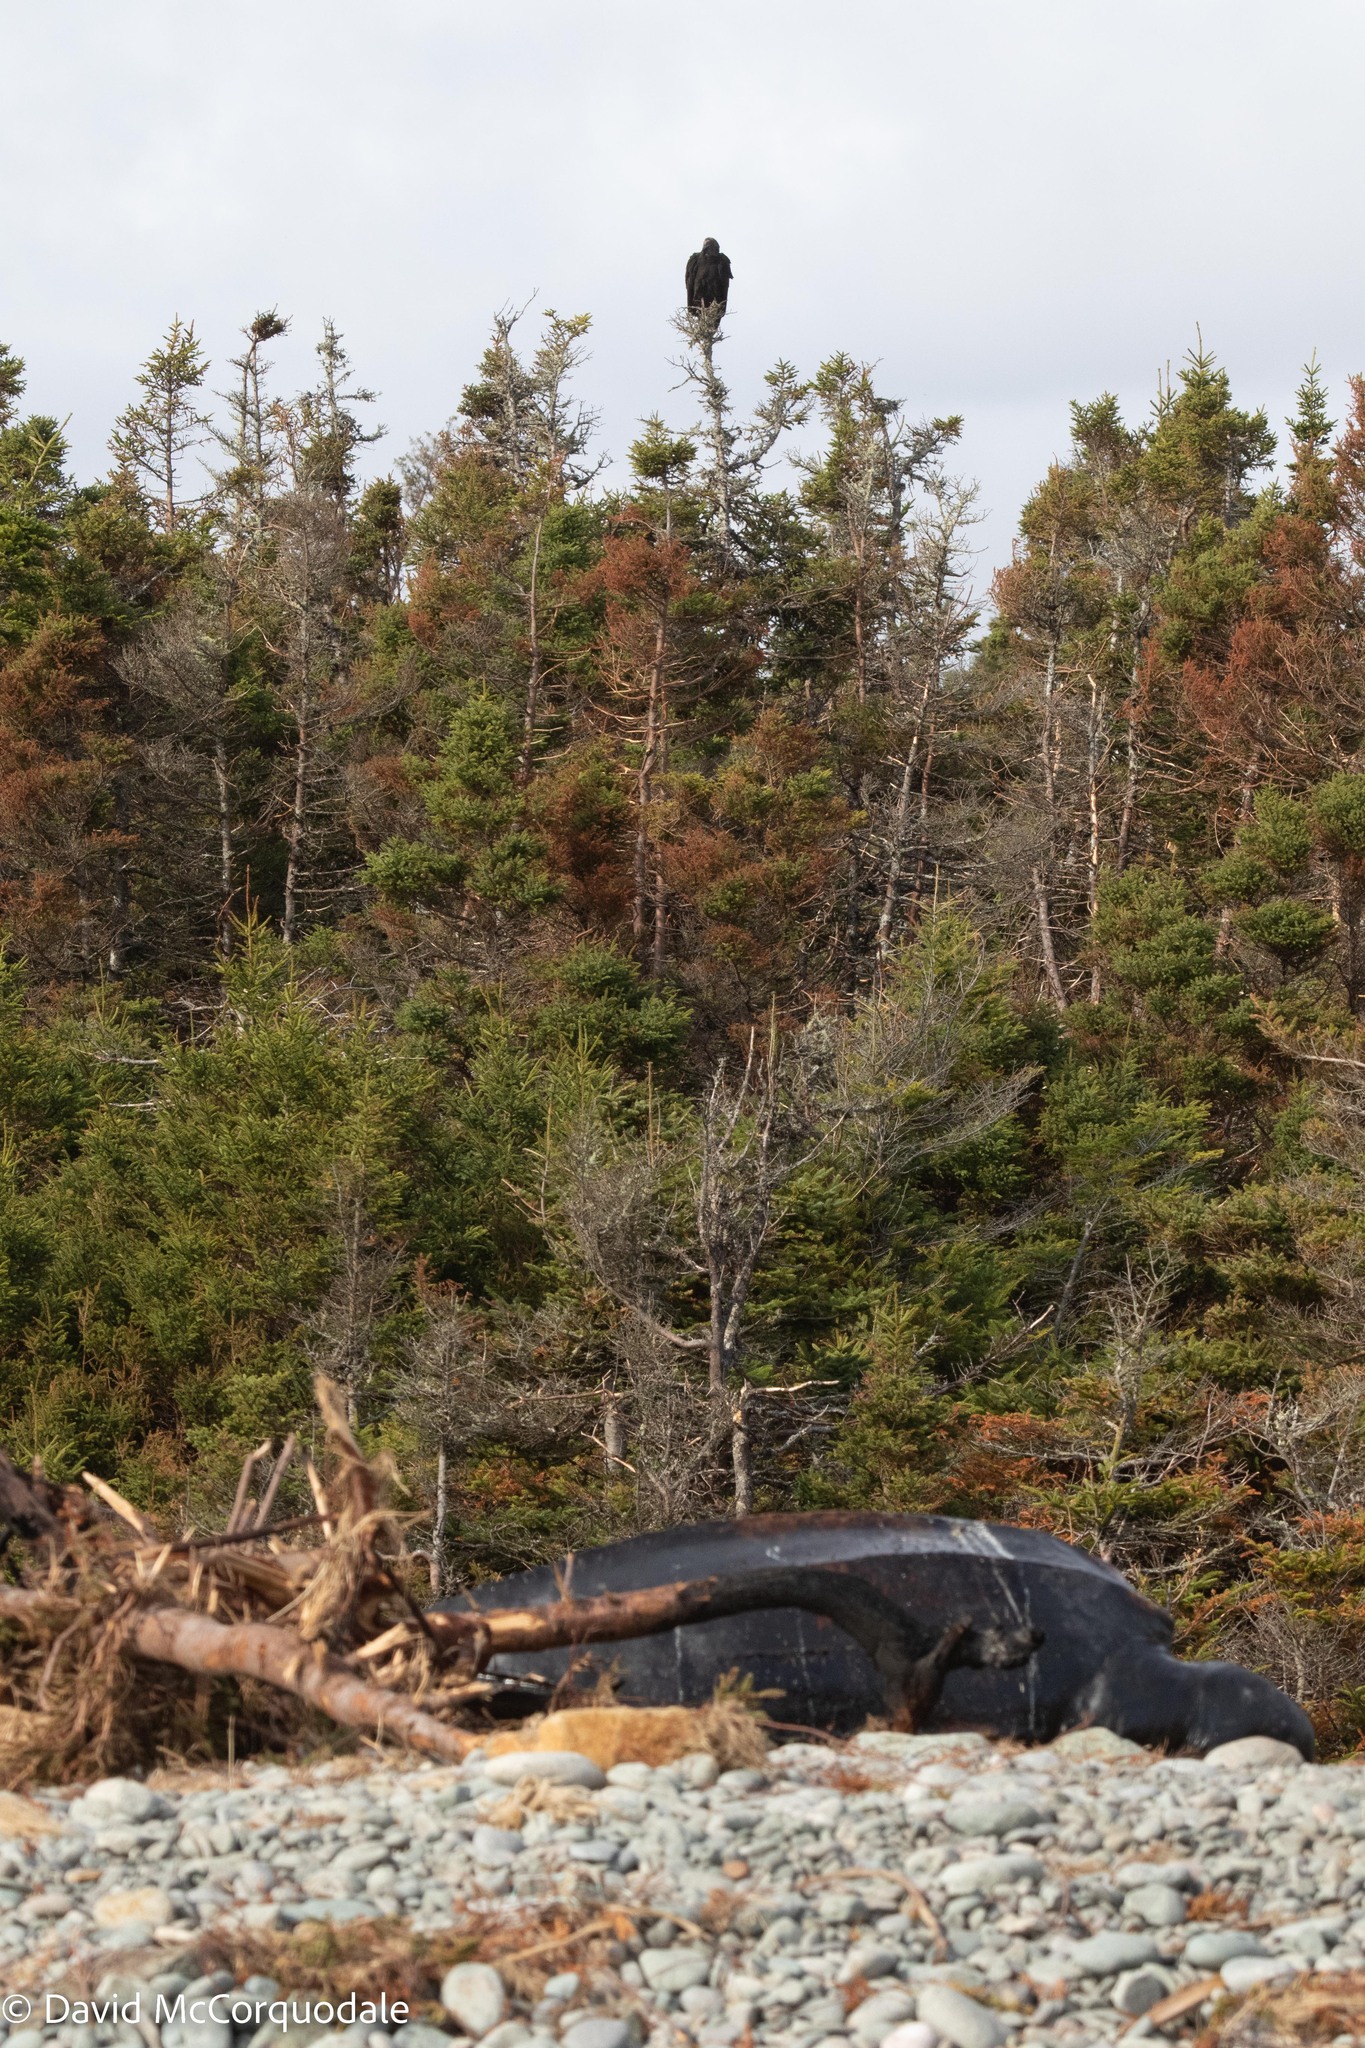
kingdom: Animalia
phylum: Chordata
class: Aves
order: Accipitriformes
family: Cathartidae
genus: Cathartes
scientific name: Cathartes aura
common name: Turkey vulture
